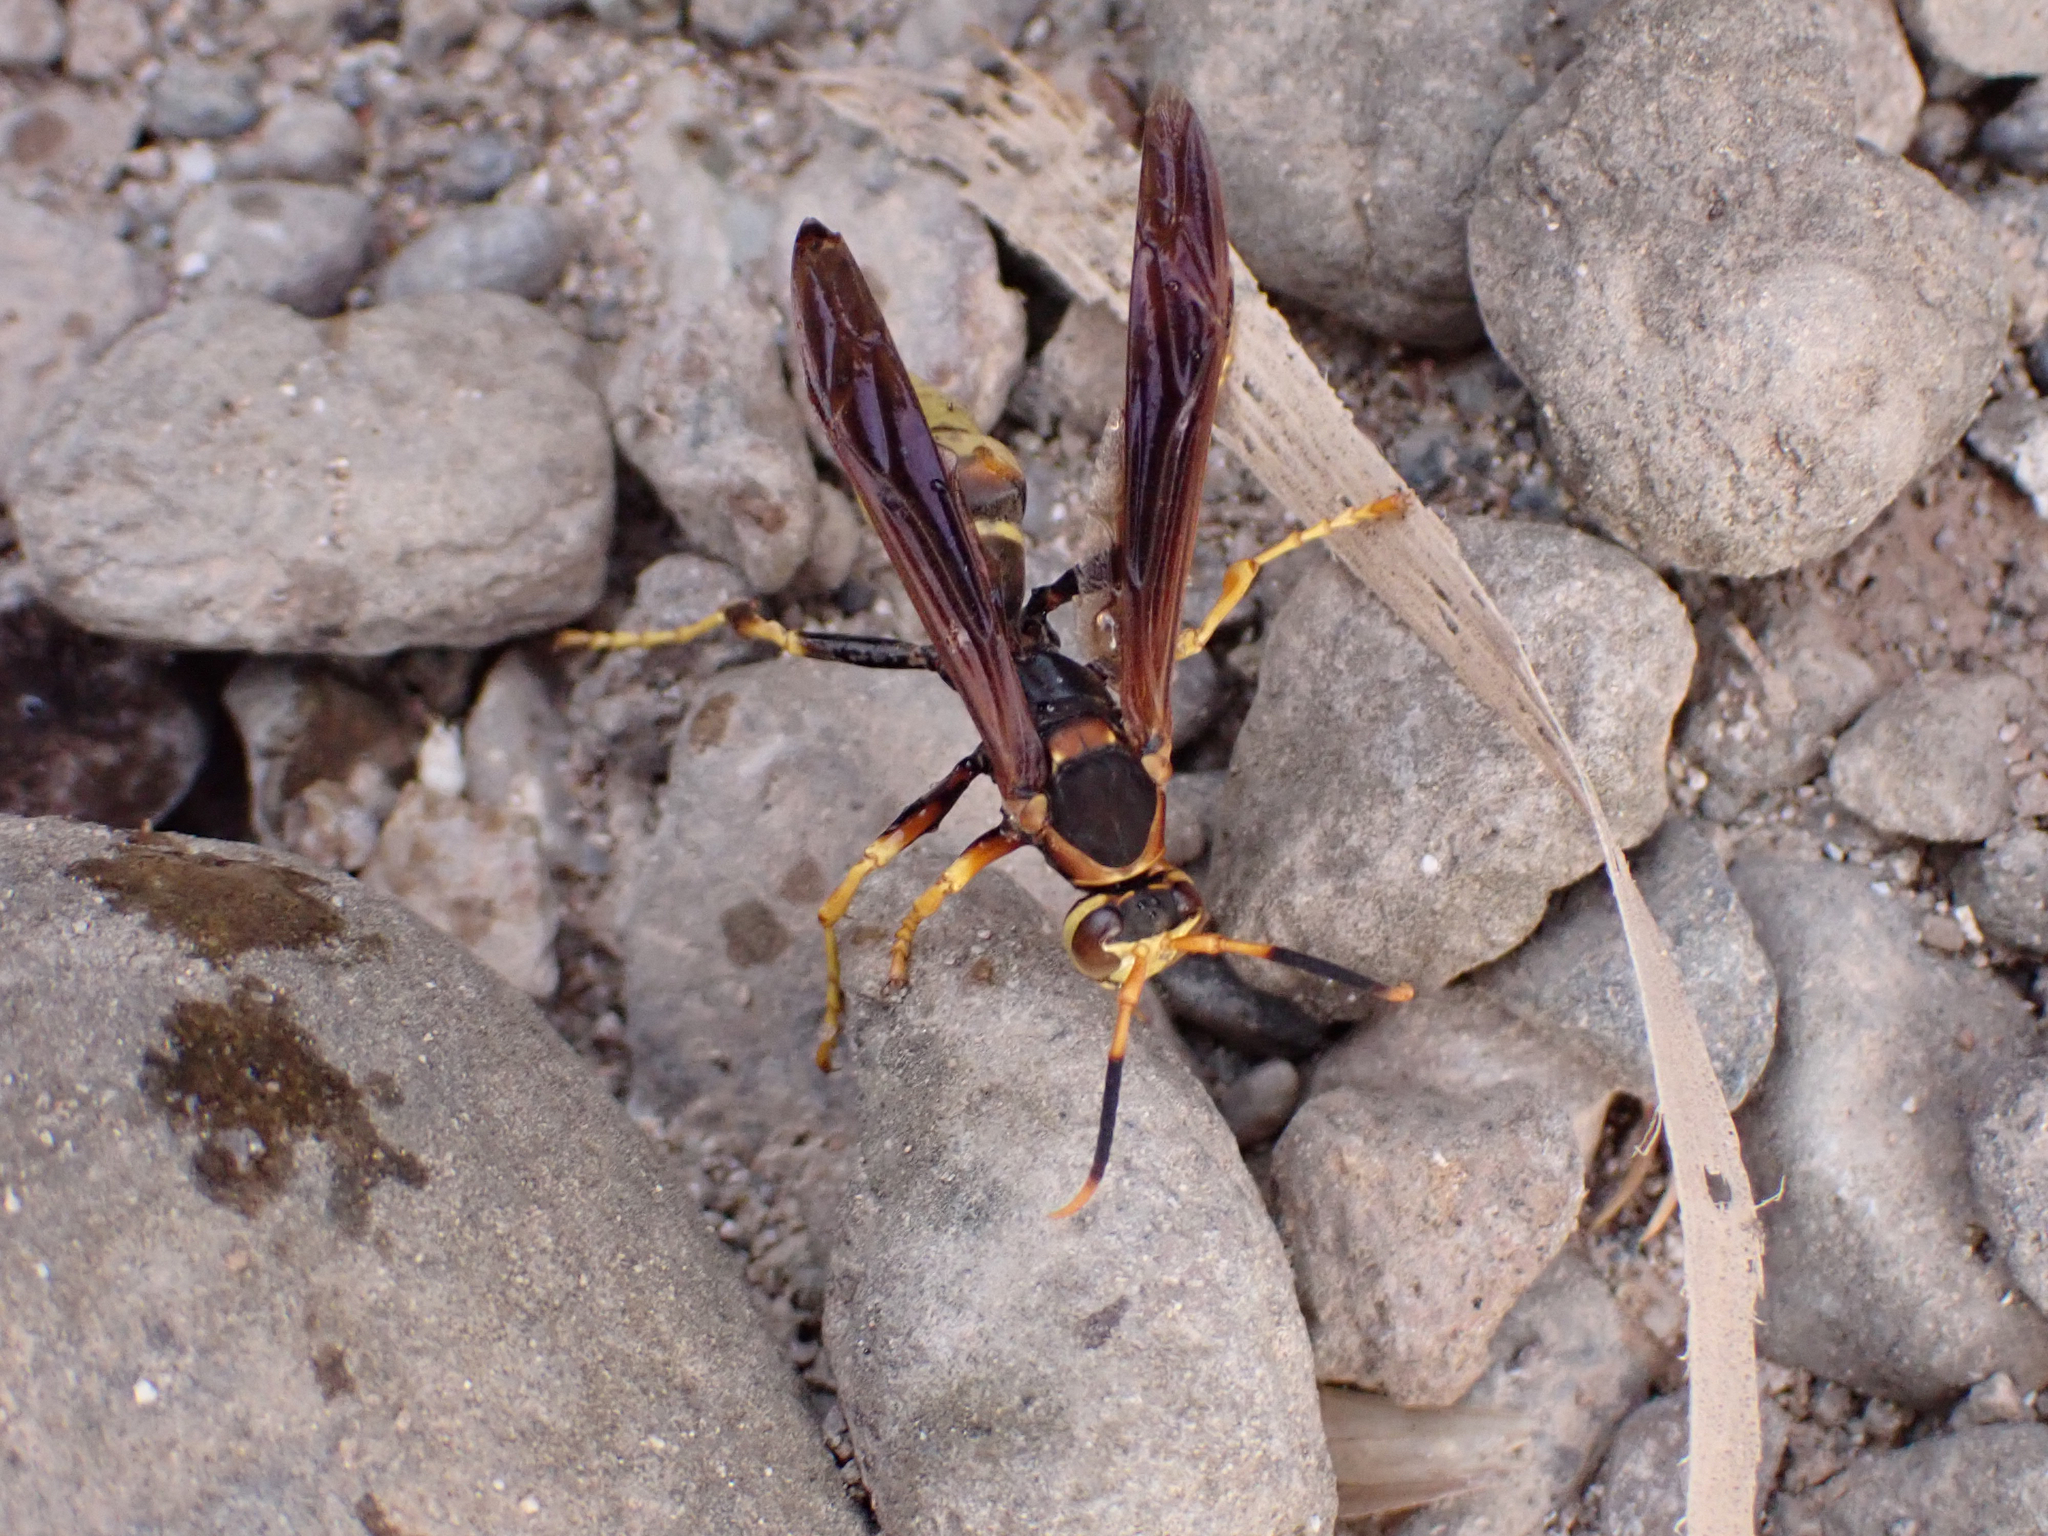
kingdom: Animalia
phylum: Arthropoda
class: Insecta
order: Hymenoptera
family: Eumenidae
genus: Polistes
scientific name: Polistes comanchus
